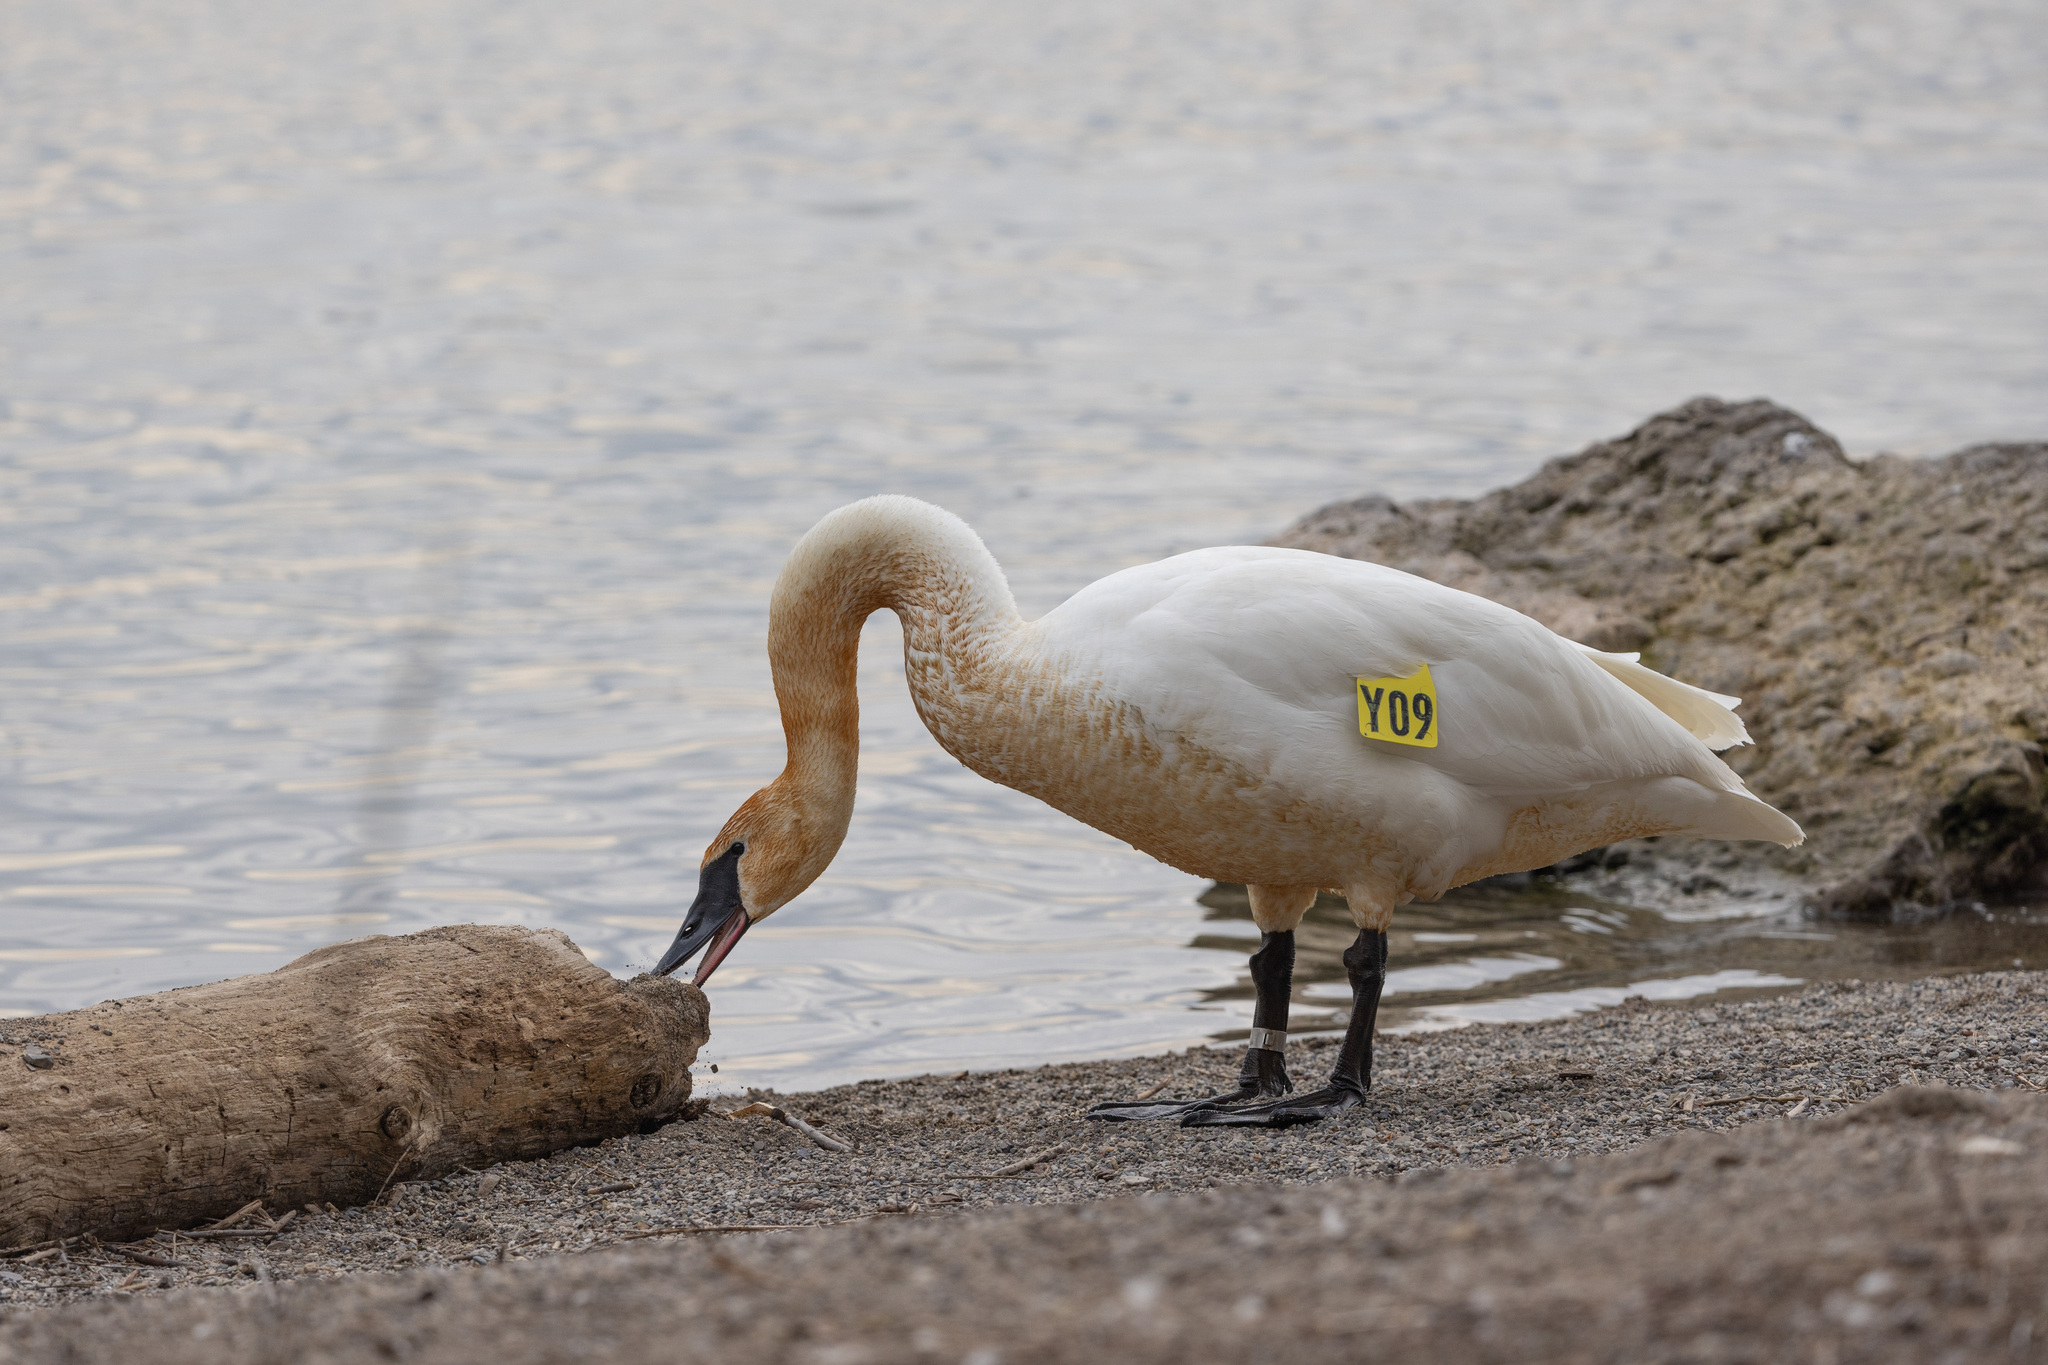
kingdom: Animalia
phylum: Chordata
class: Aves
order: Anseriformes
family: Anatidae
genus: Cygnus
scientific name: Cygnus buccinator
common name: Trumpeter swan
